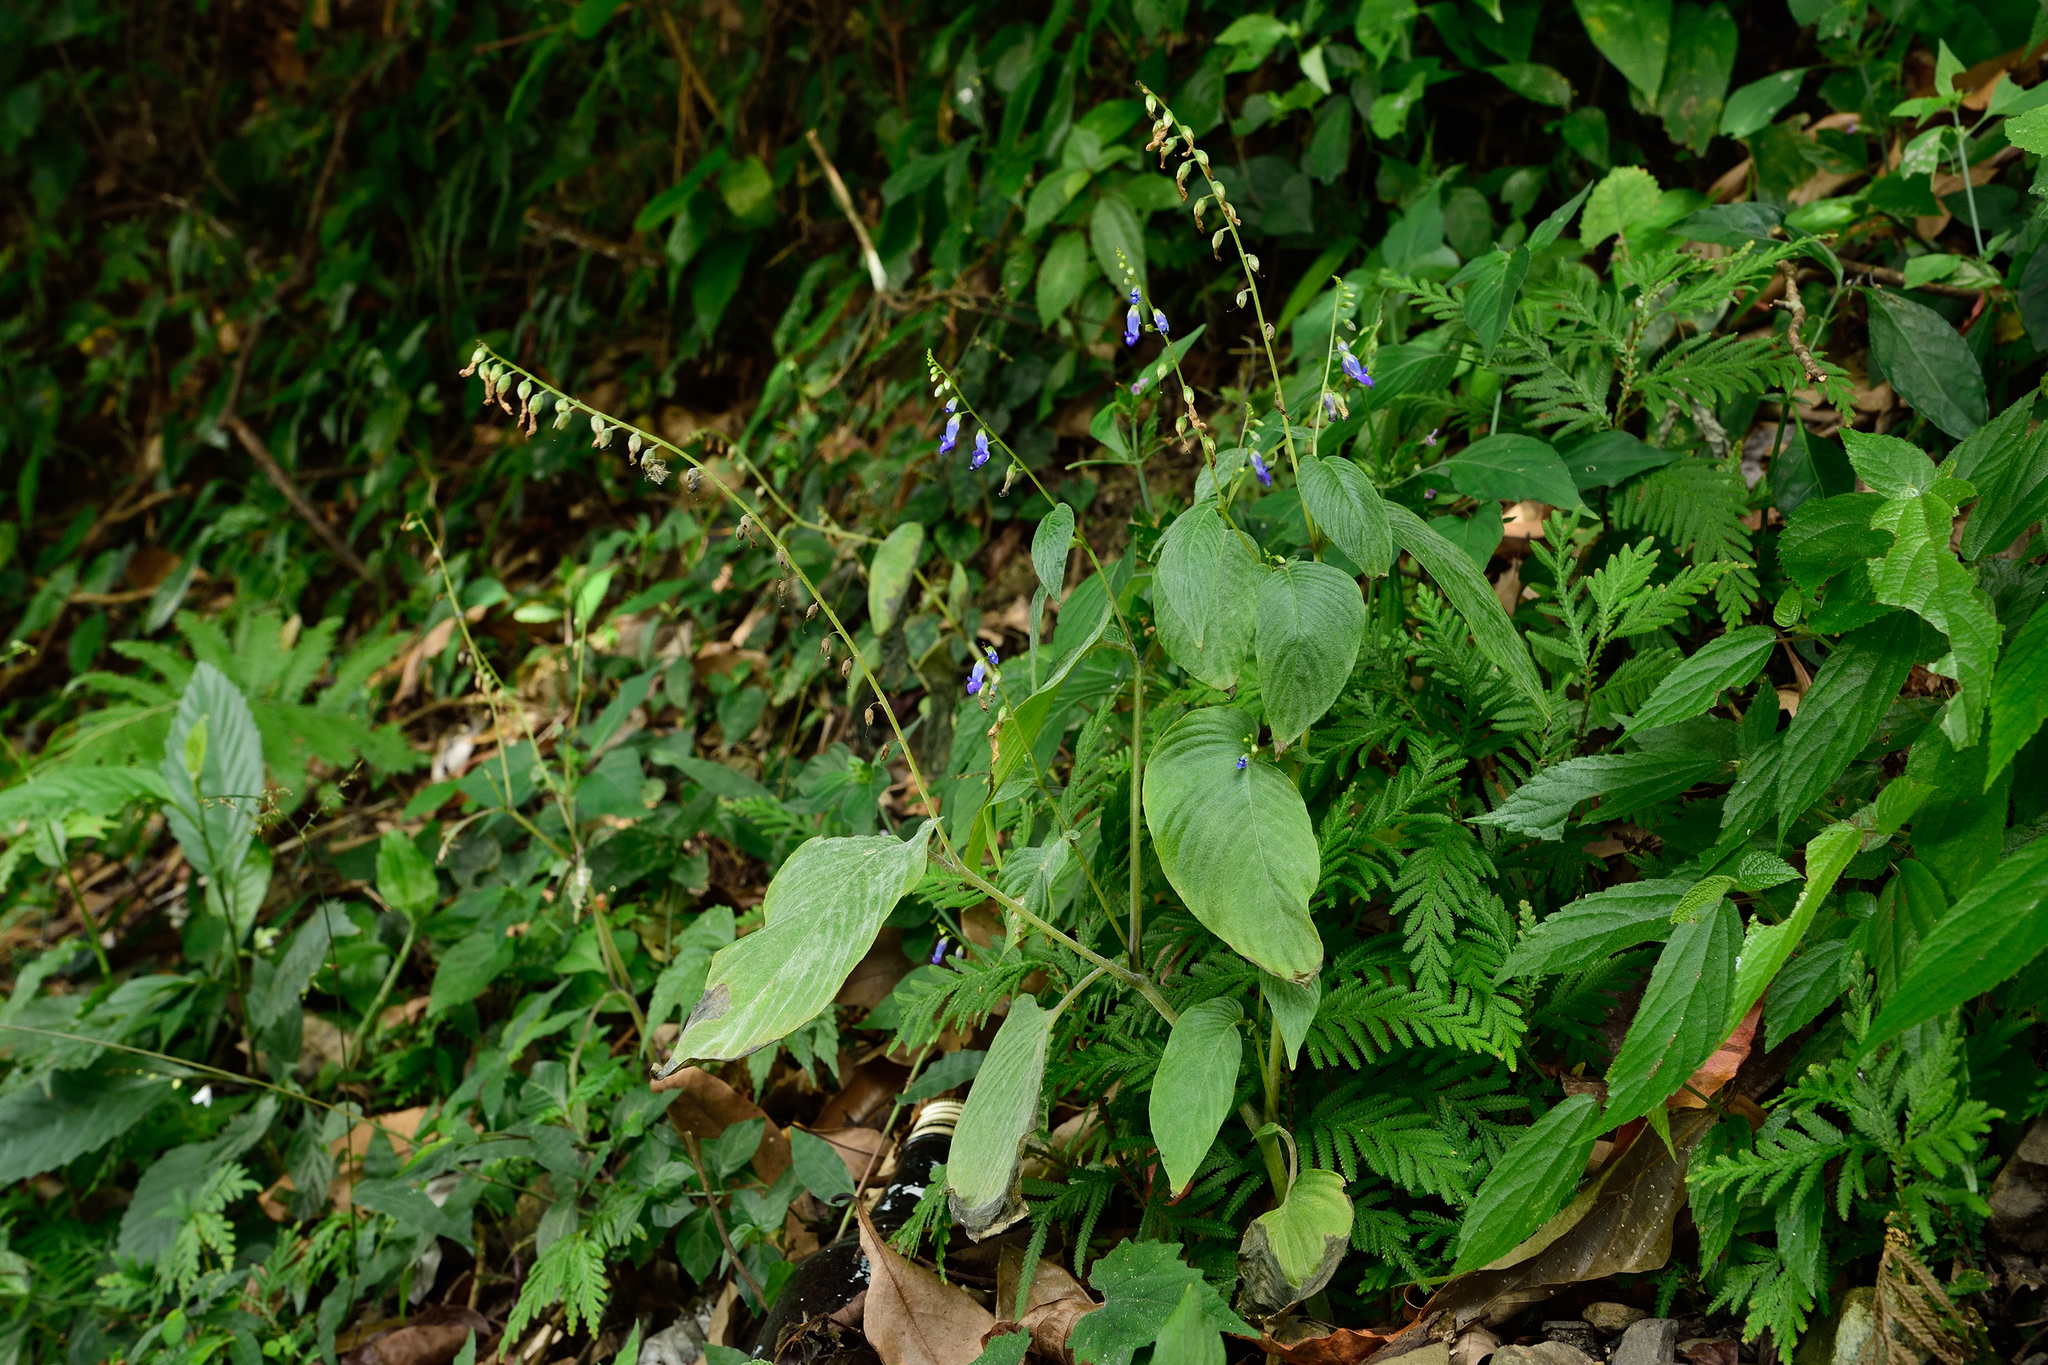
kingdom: Plantae
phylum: Tracheophyta
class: Magnoliopsida
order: Lamiales
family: Gesneriaceae
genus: Rhynchoglossum
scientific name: Rhynchoglossum obliquum
